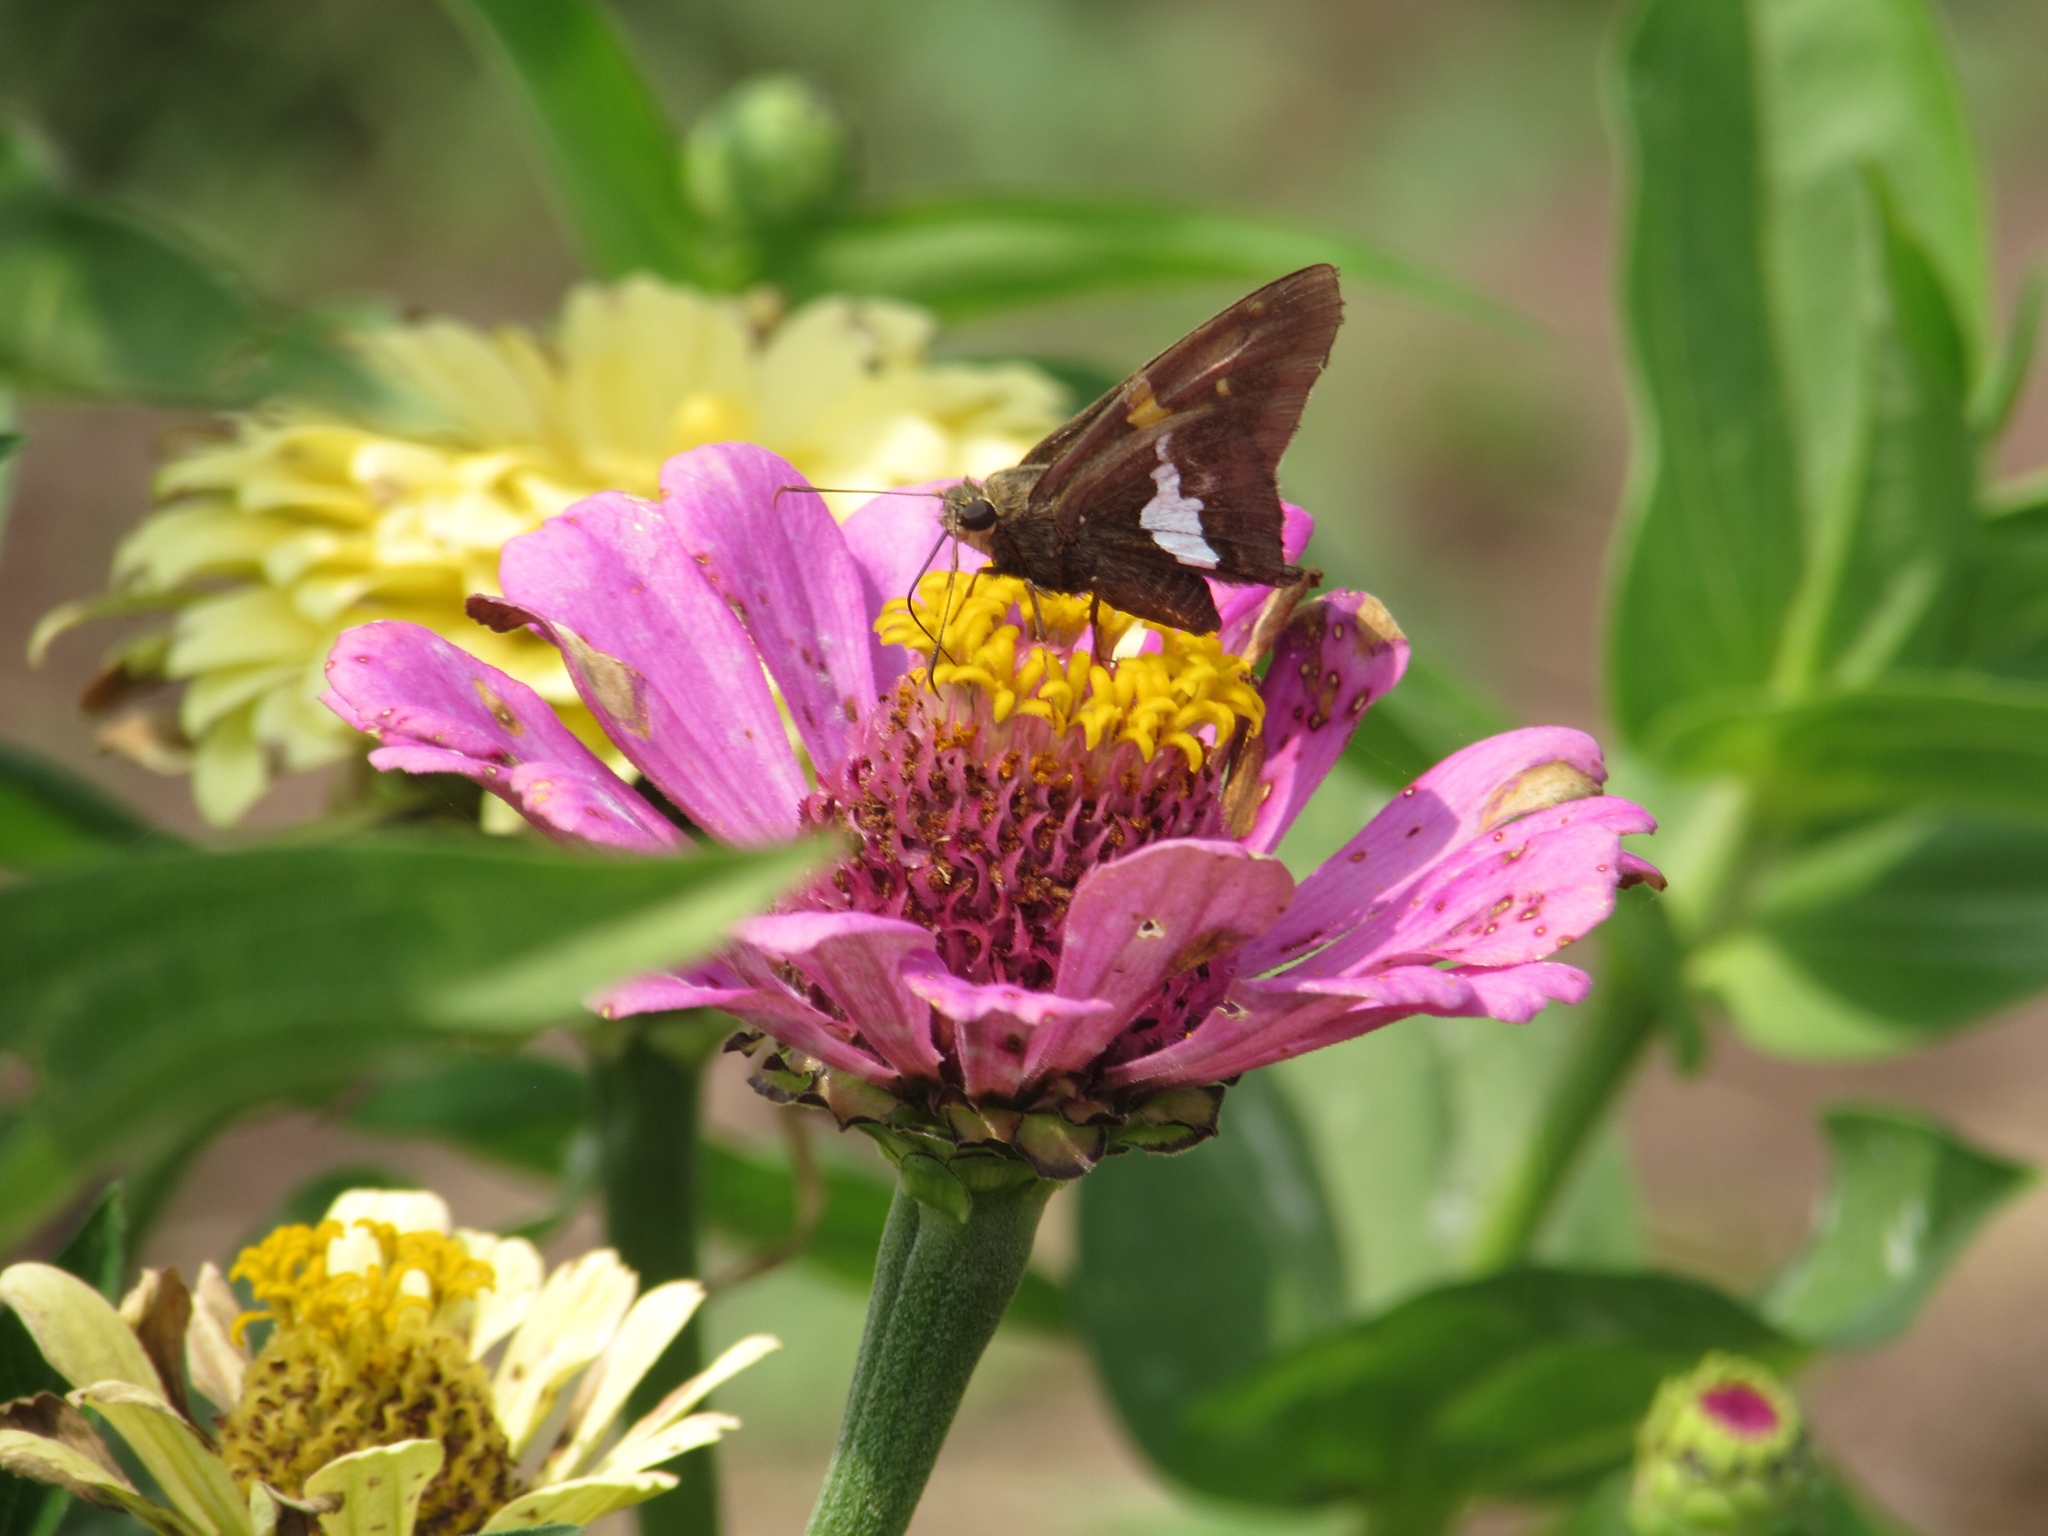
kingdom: Animalia
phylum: Arthropoda
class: Insecta
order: Lepidoptera
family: Hesperiidae
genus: Epargyreus
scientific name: Epargyreus clarus
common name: Silver-spotted skipper
